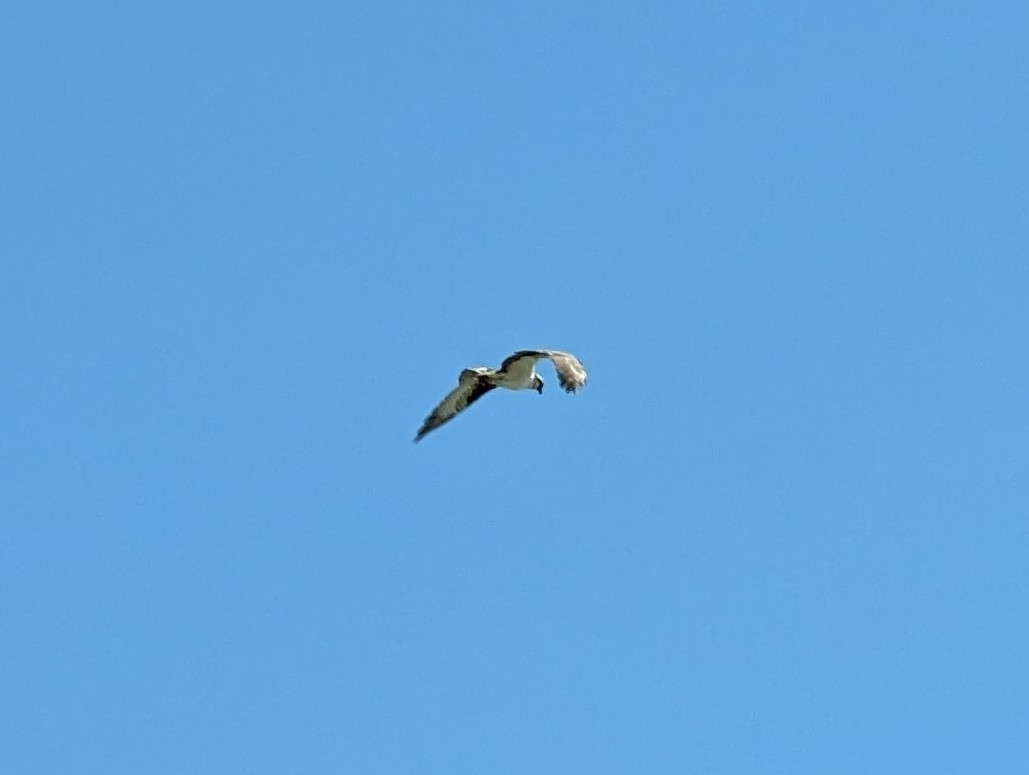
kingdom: Animalia
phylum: Chordata
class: Aves
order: Accipitriformes
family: Pandionidae
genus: Pandion
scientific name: Pandion haliaetus
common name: Osprey
